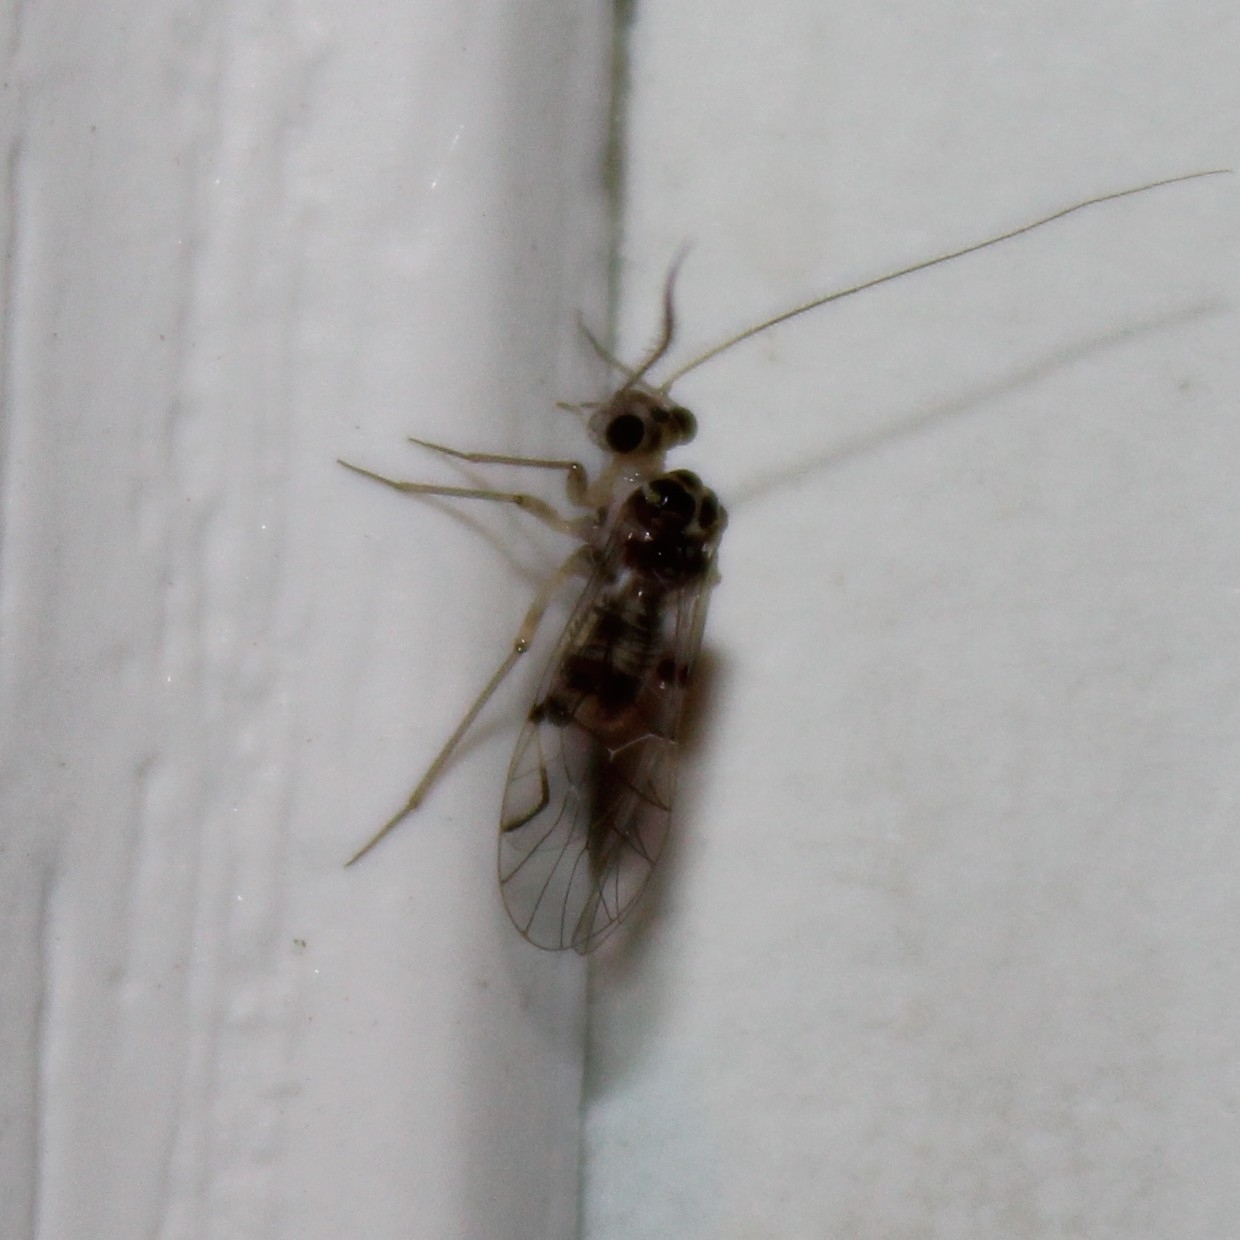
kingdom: Animalia
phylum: Arthropoda
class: Insecta
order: Psocodea
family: Psocidae
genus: Metylophorus
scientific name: Metylophorus purus
